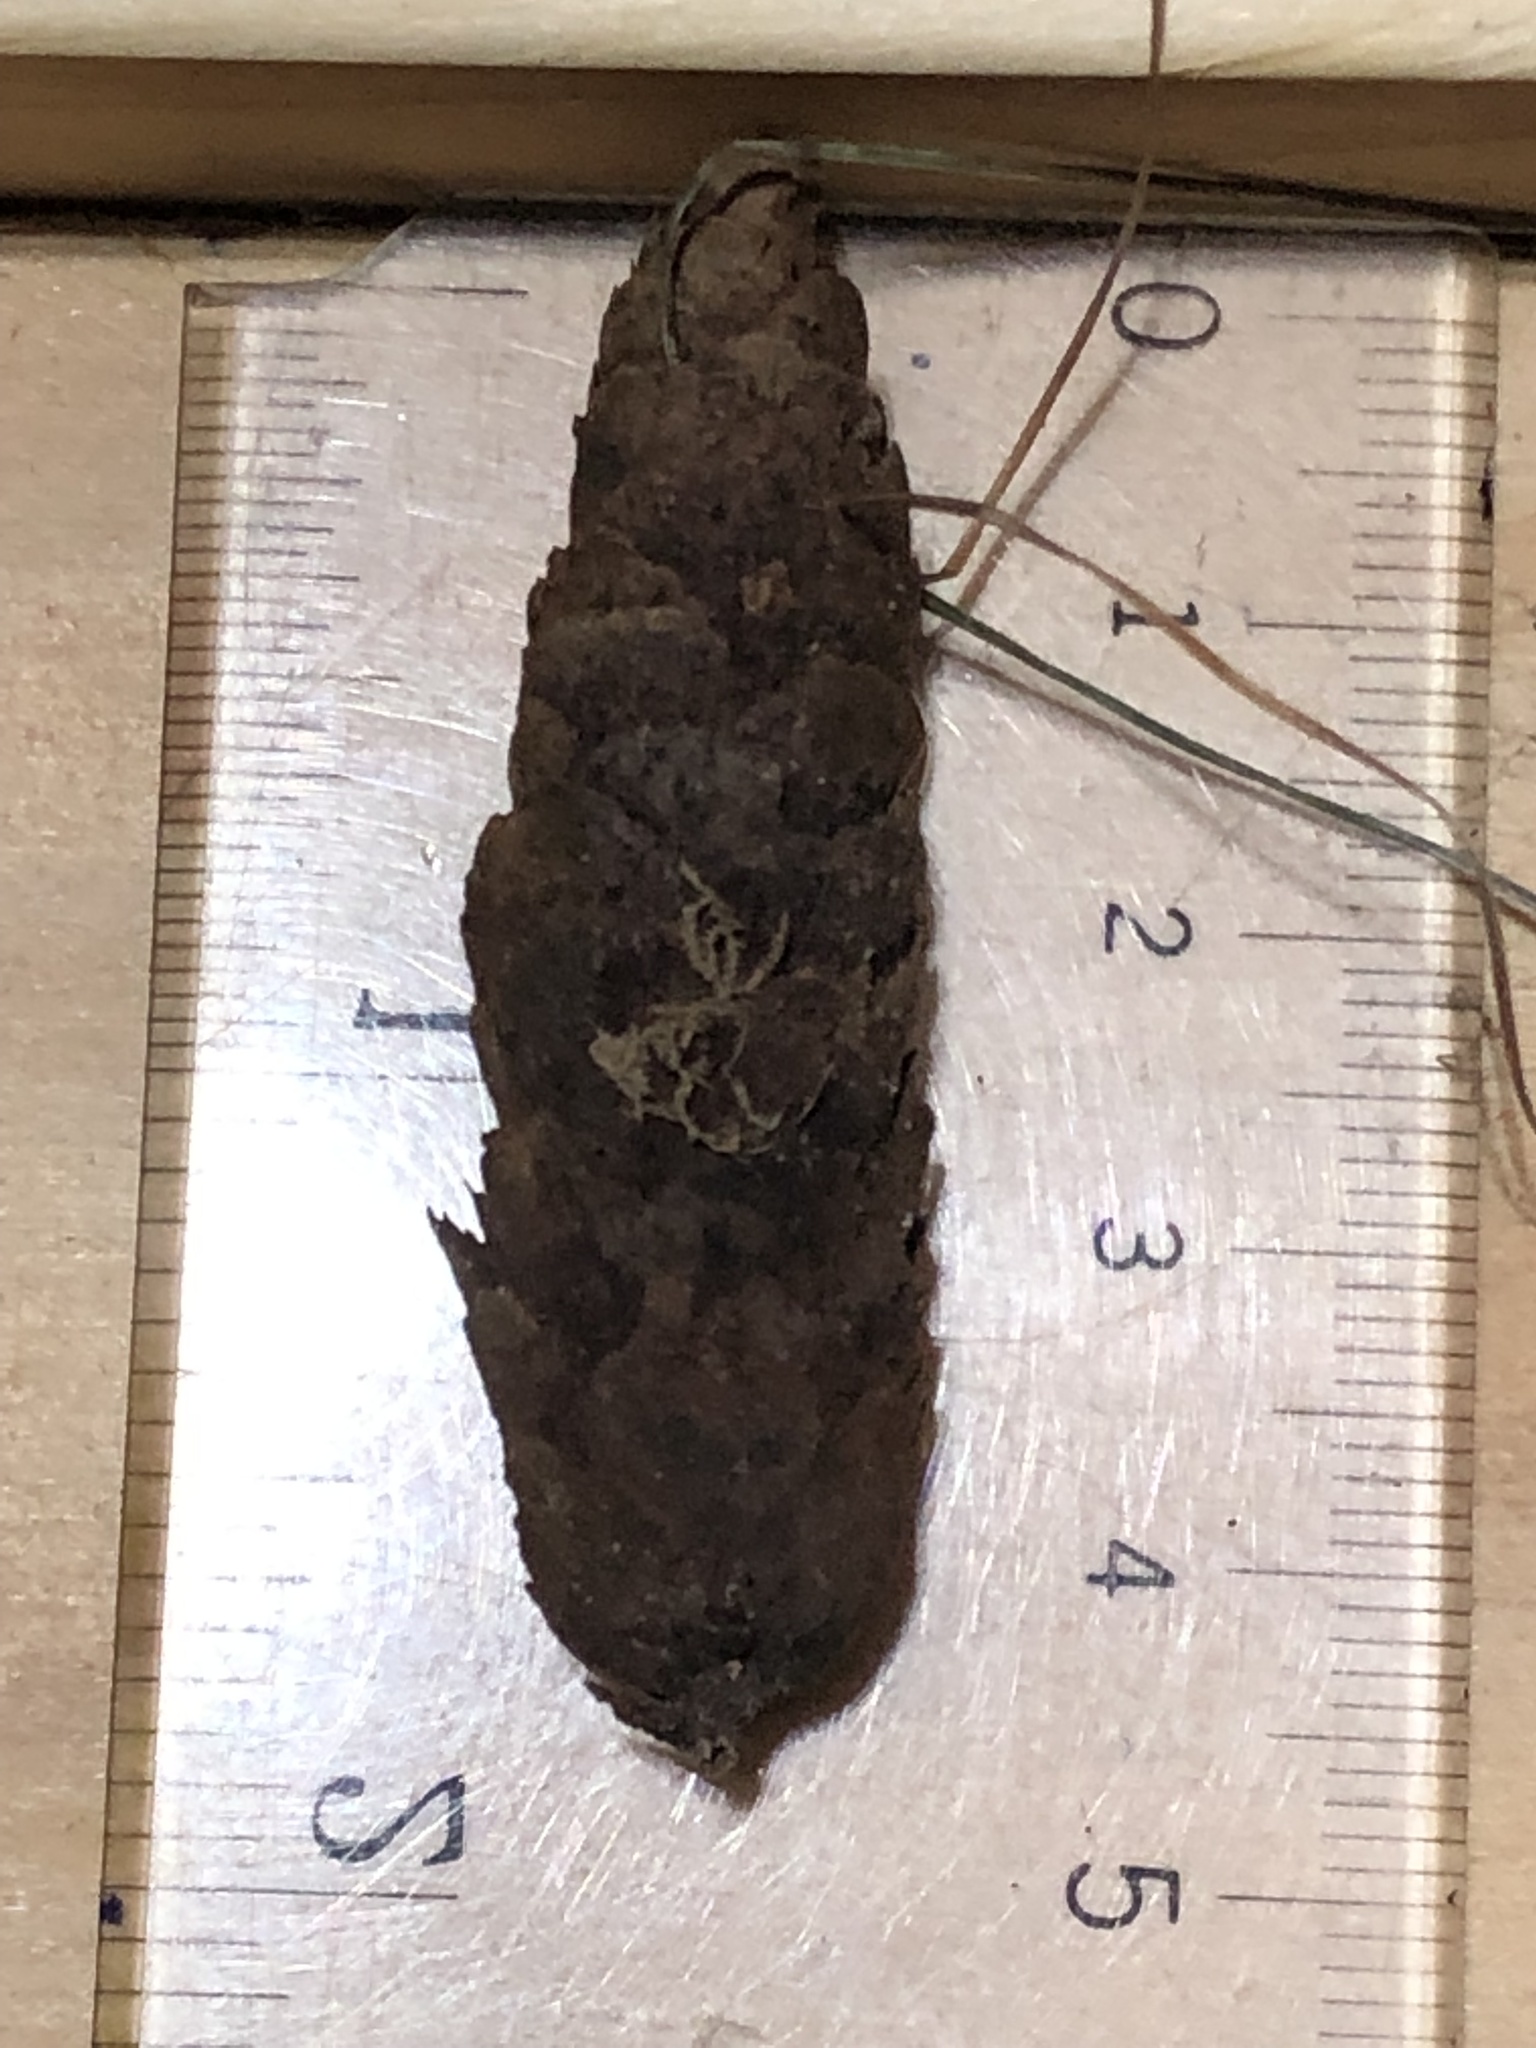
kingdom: Plantae
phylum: Tracheophyta
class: Pinopsida
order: Pinales
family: Pinaceae
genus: Picea
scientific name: Picea glauca
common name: White spruce
